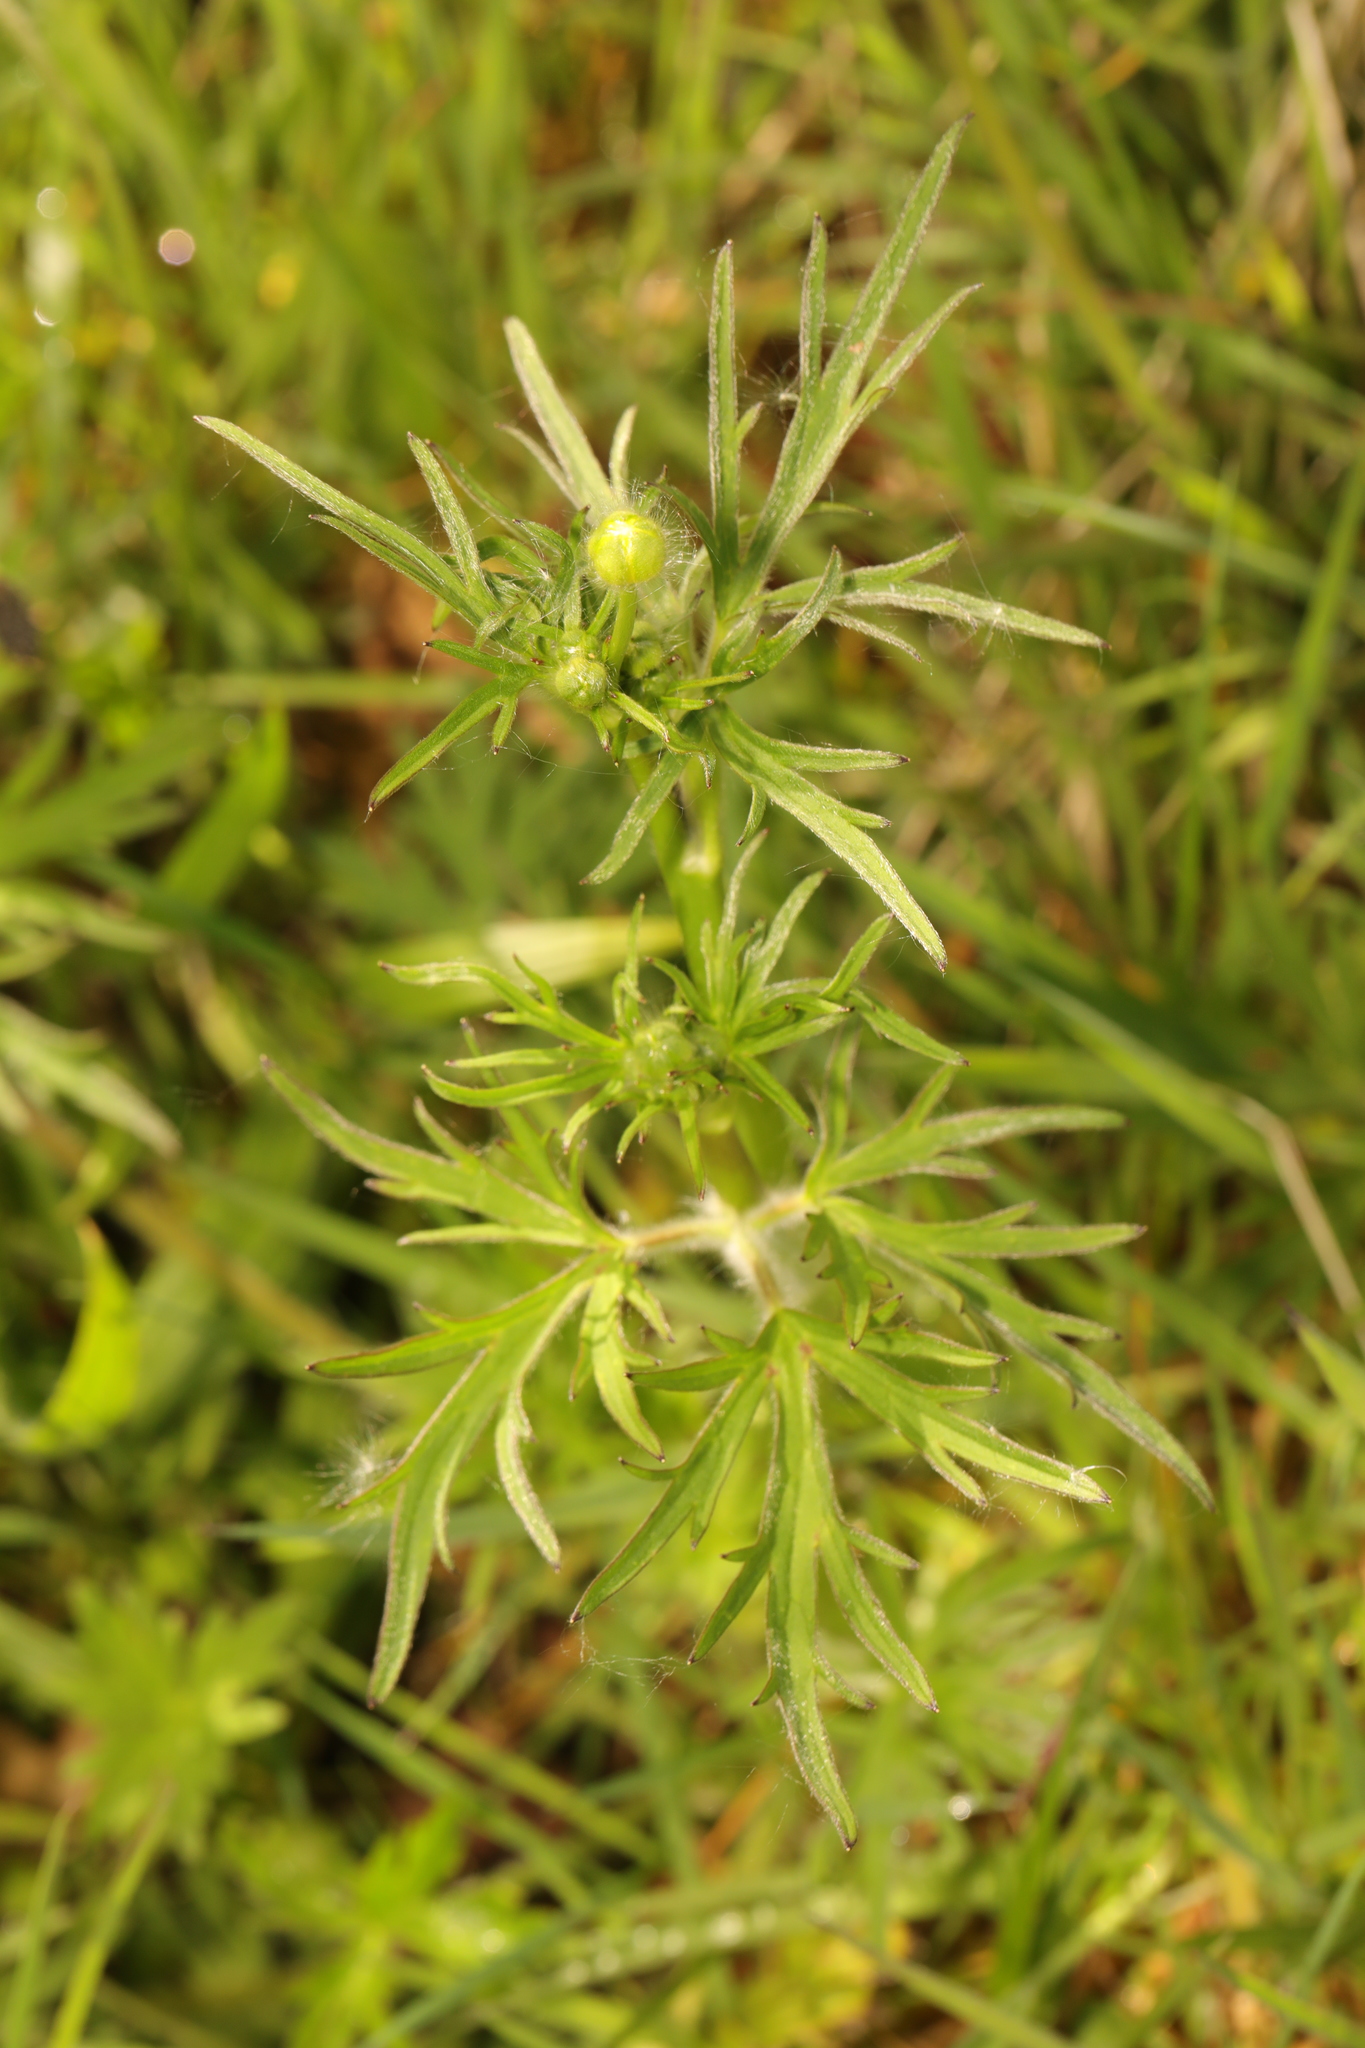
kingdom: Plantae
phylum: Tracheophyta
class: Magnoliopsida
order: Ranunculales
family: Ranunculaceae
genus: Ranunculus
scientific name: Ranunculus acris
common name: Meadow buttercup
